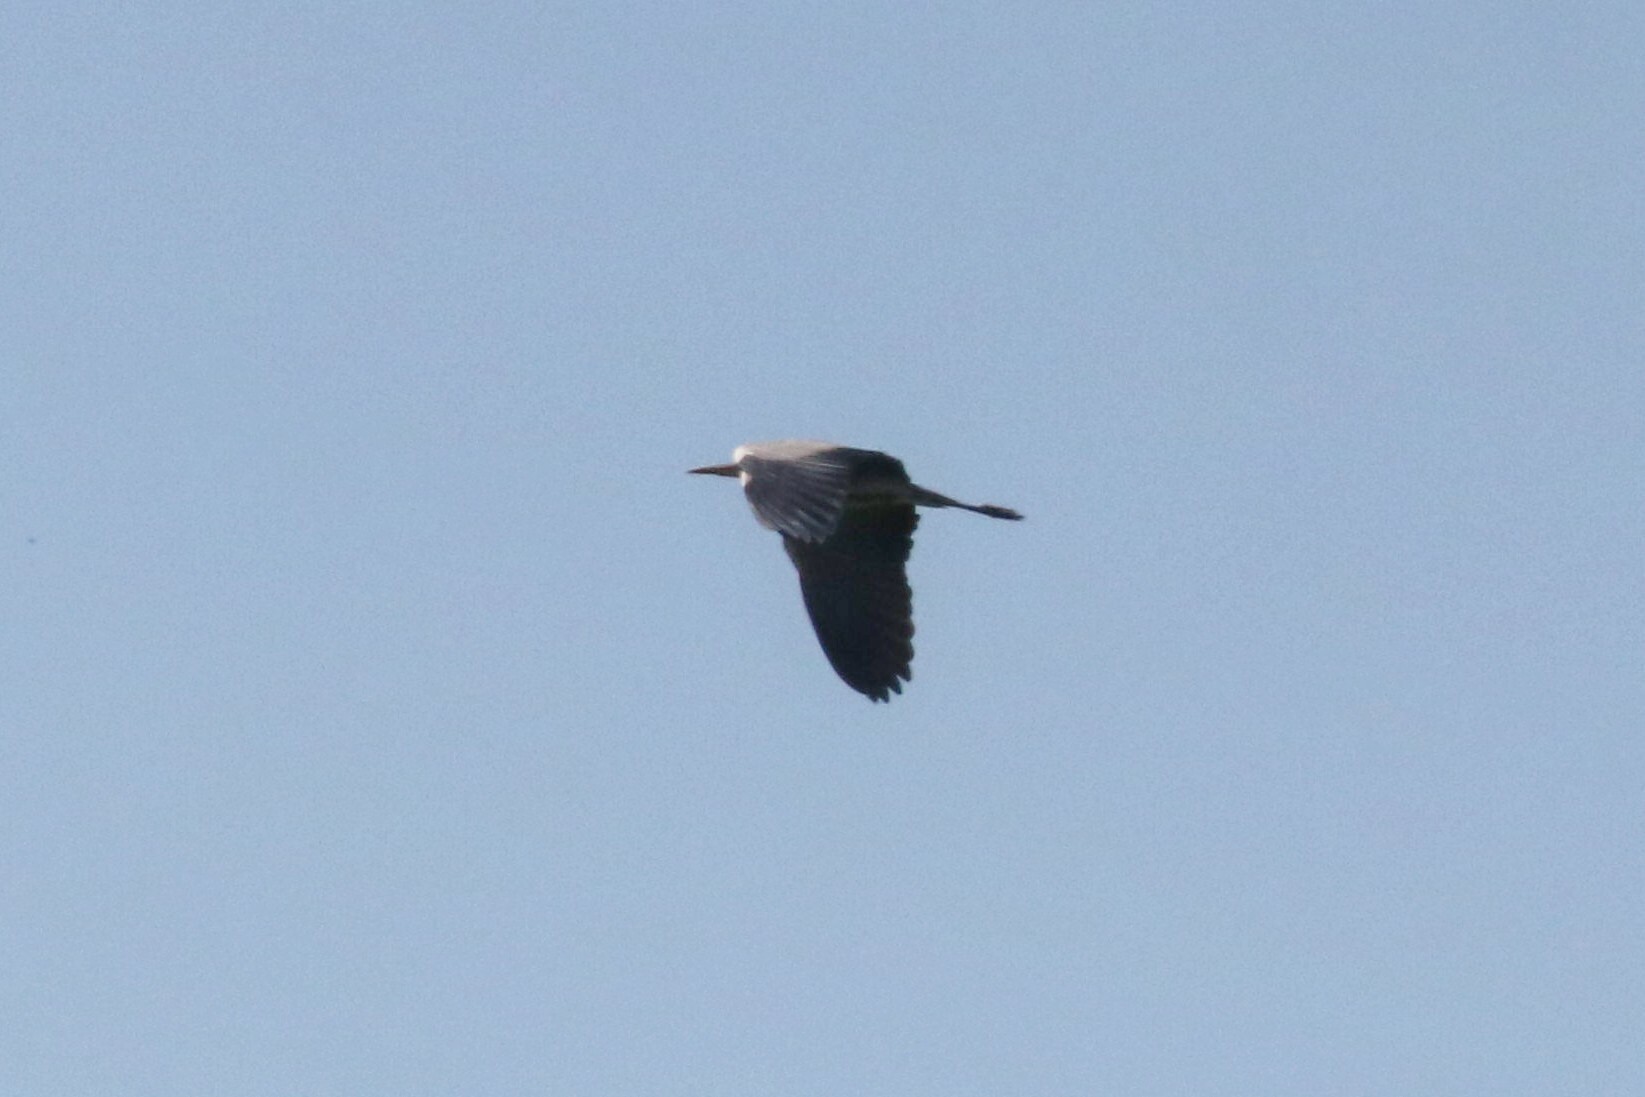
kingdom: Animalia
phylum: Chordata
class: Aves
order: Pelecaniformes
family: Ardeidae
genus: Ardea
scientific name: Ardea cinerea
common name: Grey heron
